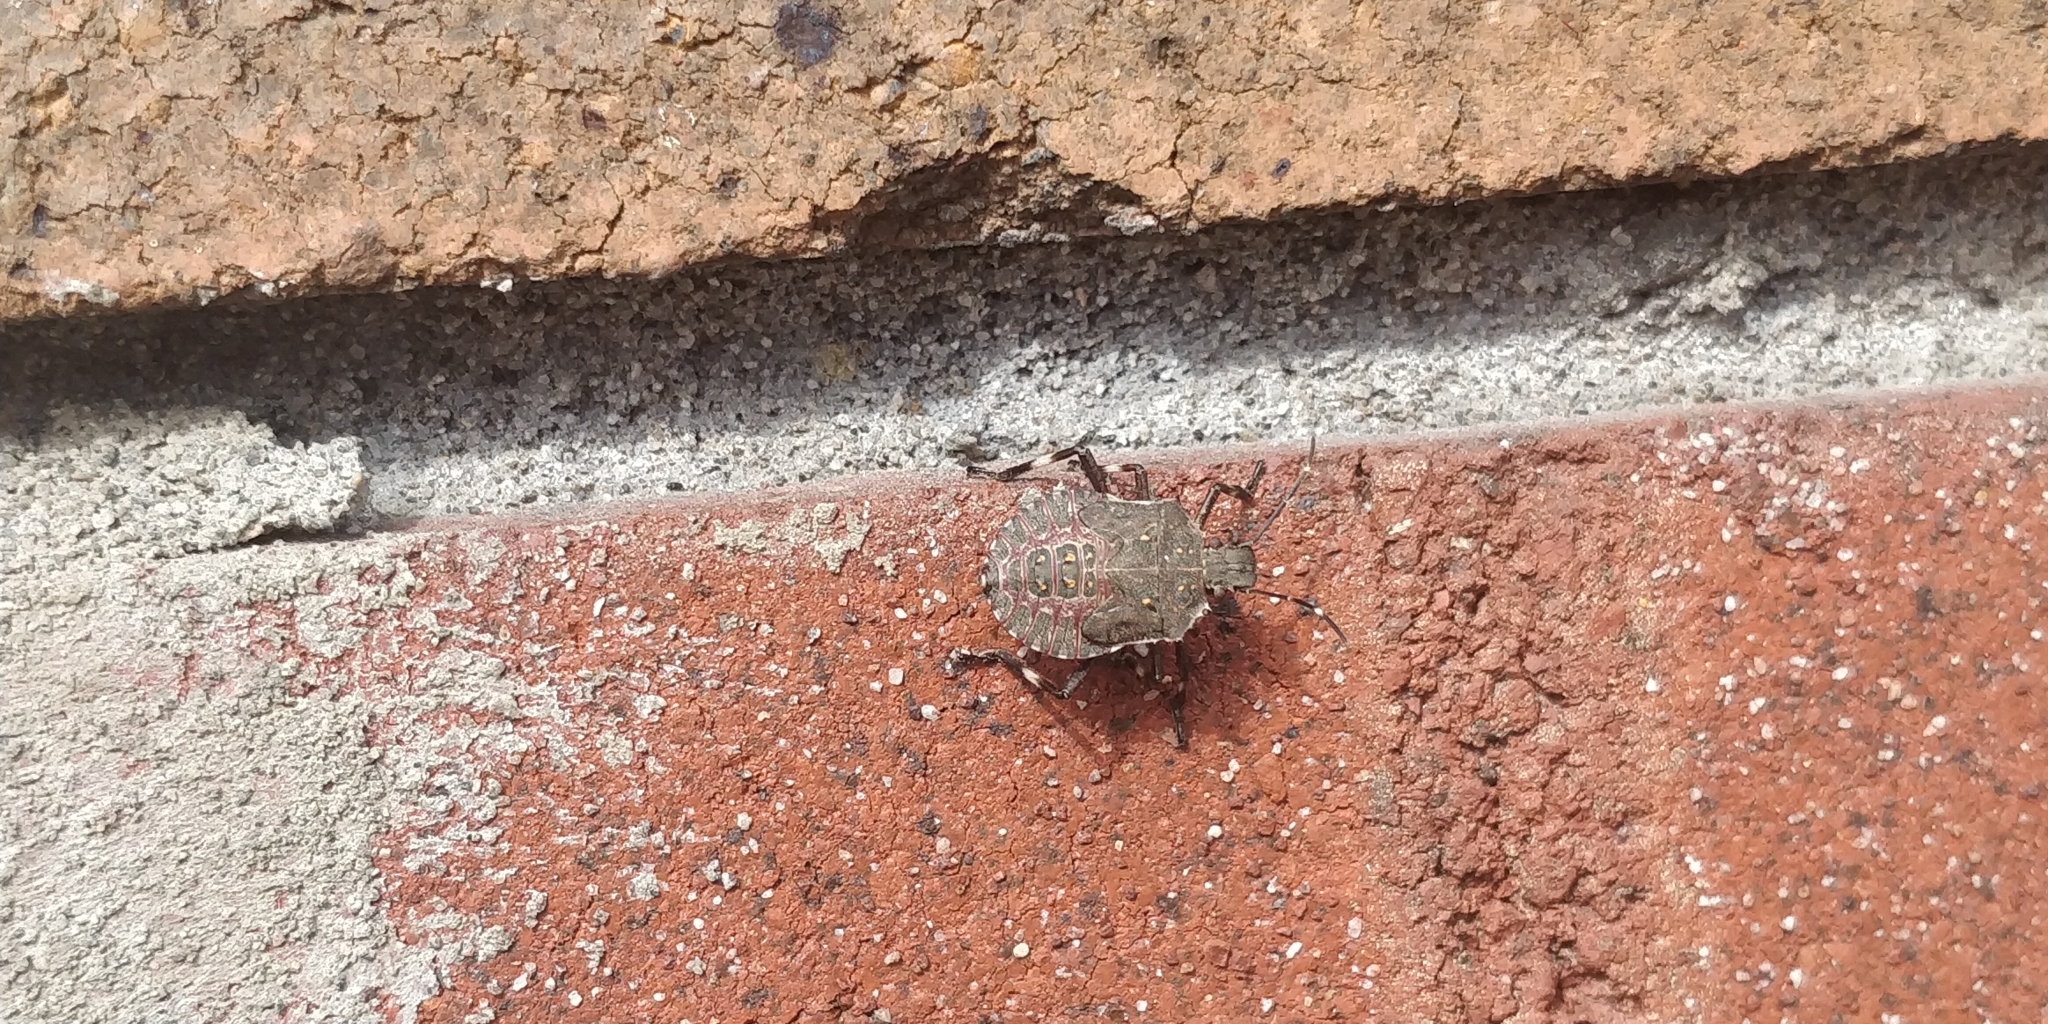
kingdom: Animalia
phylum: Arthropoda
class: Insecta
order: Hemiptera
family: Pentatomidae
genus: Halyomorpha
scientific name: Halyomorpha halys
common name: Brown marmorated stink bug
